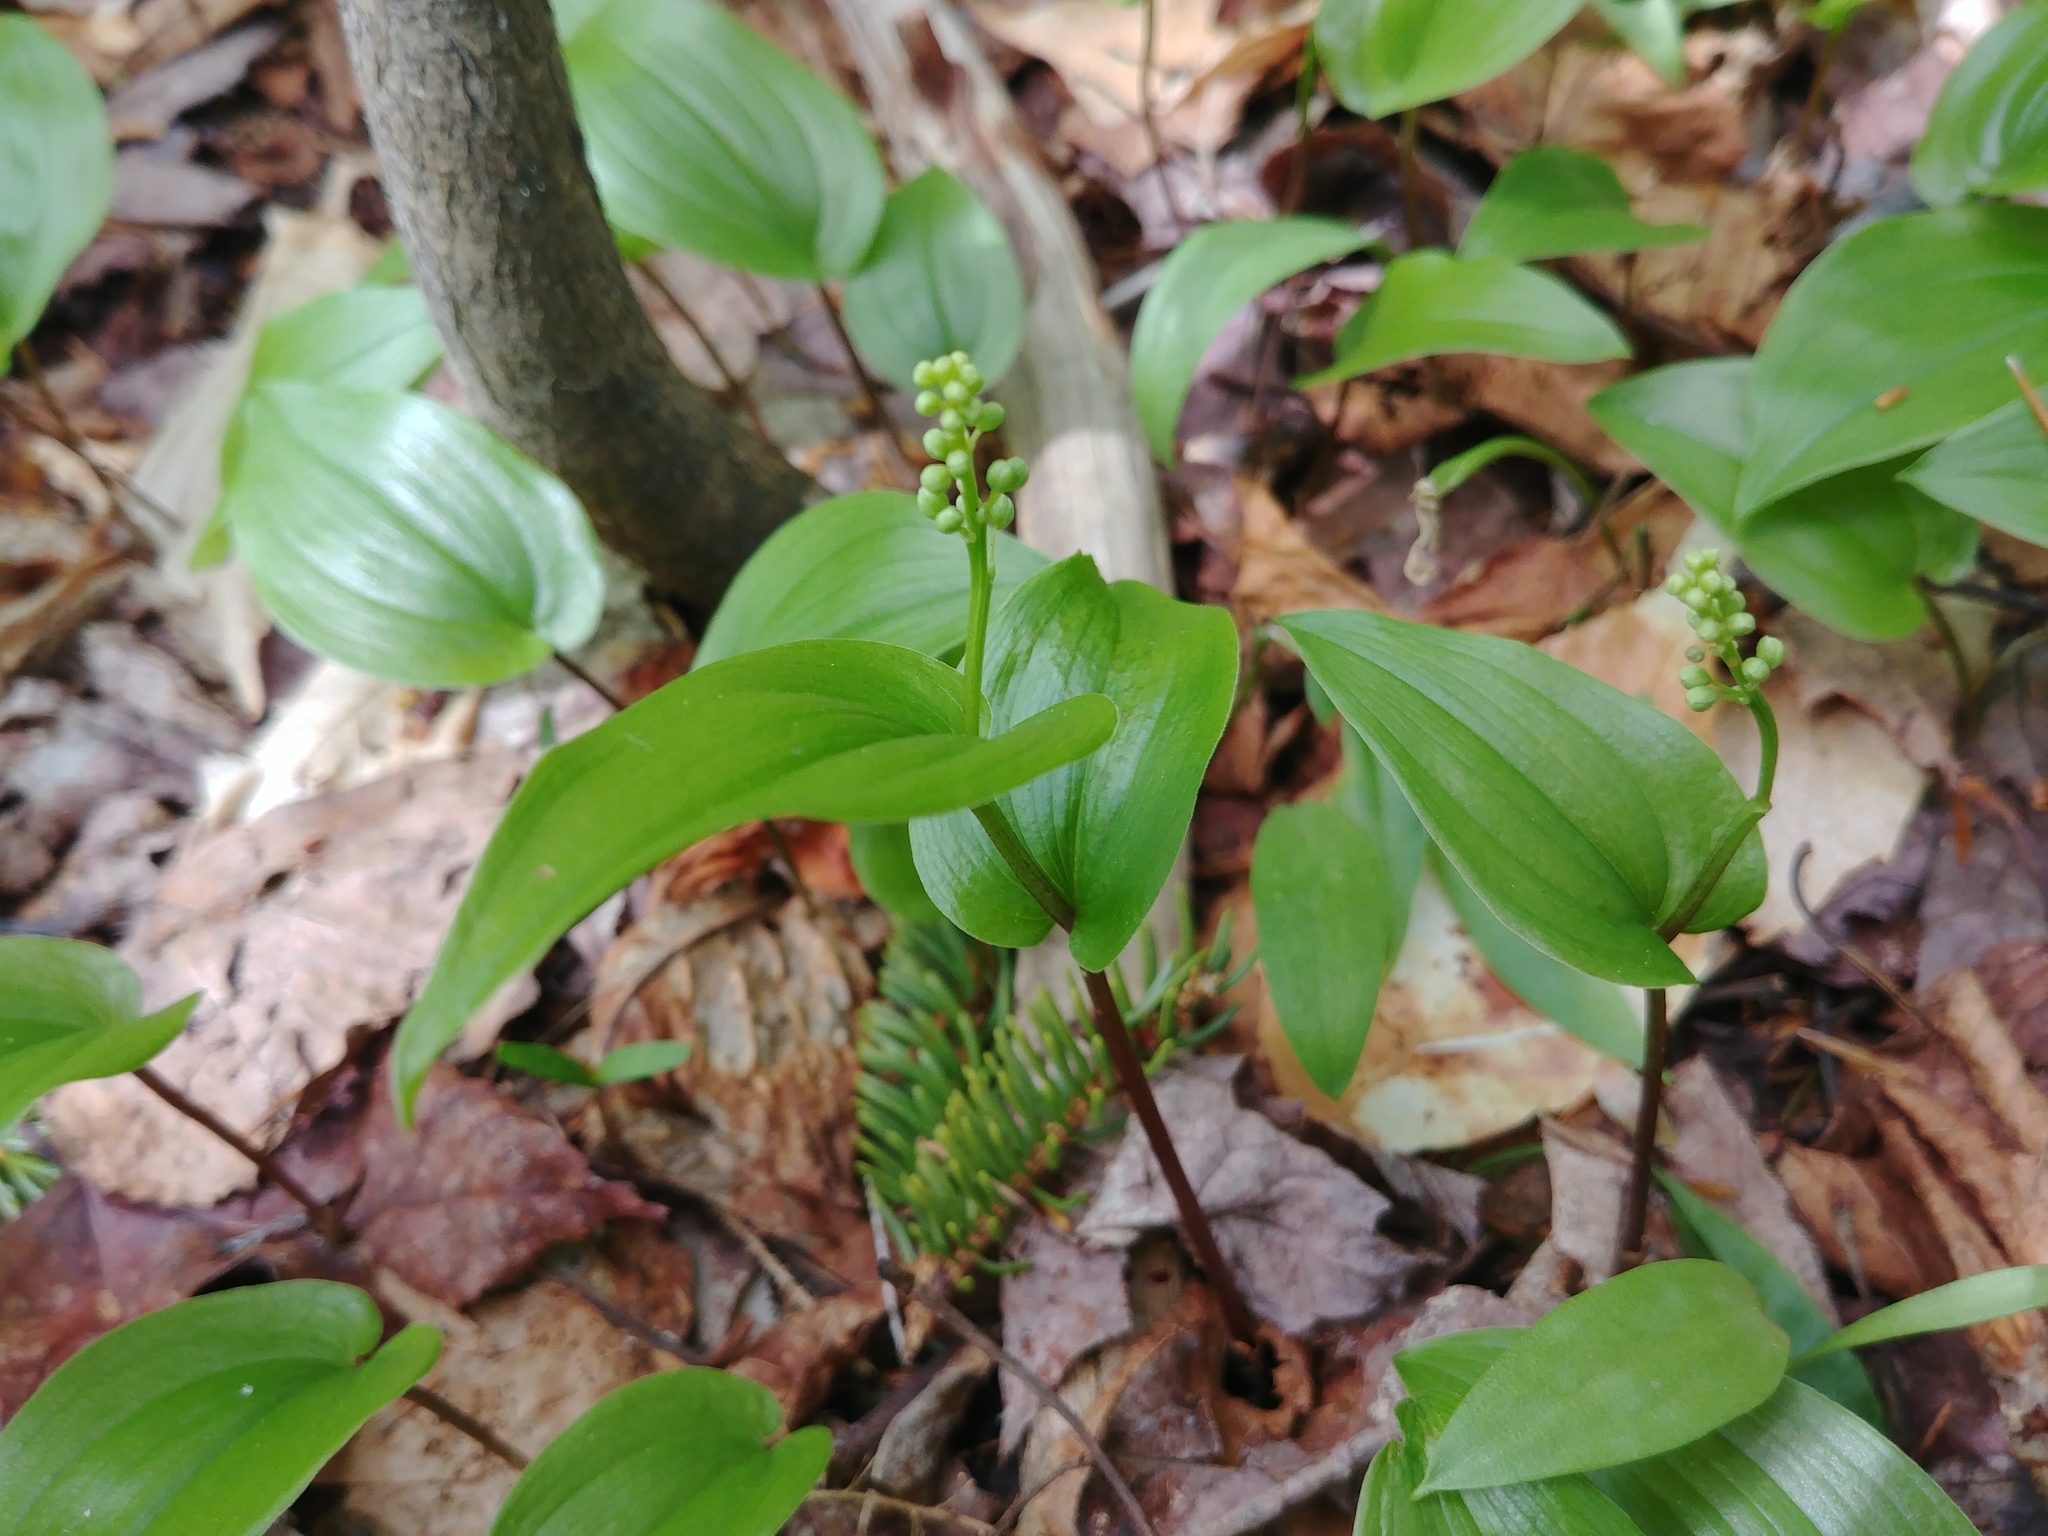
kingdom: Plantae
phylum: Tracheophyta
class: Liliopsida
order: Asparagales
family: Asparagaceae
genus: Maianthemum
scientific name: Maianthemum canadense
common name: False lily-of-the-valley
